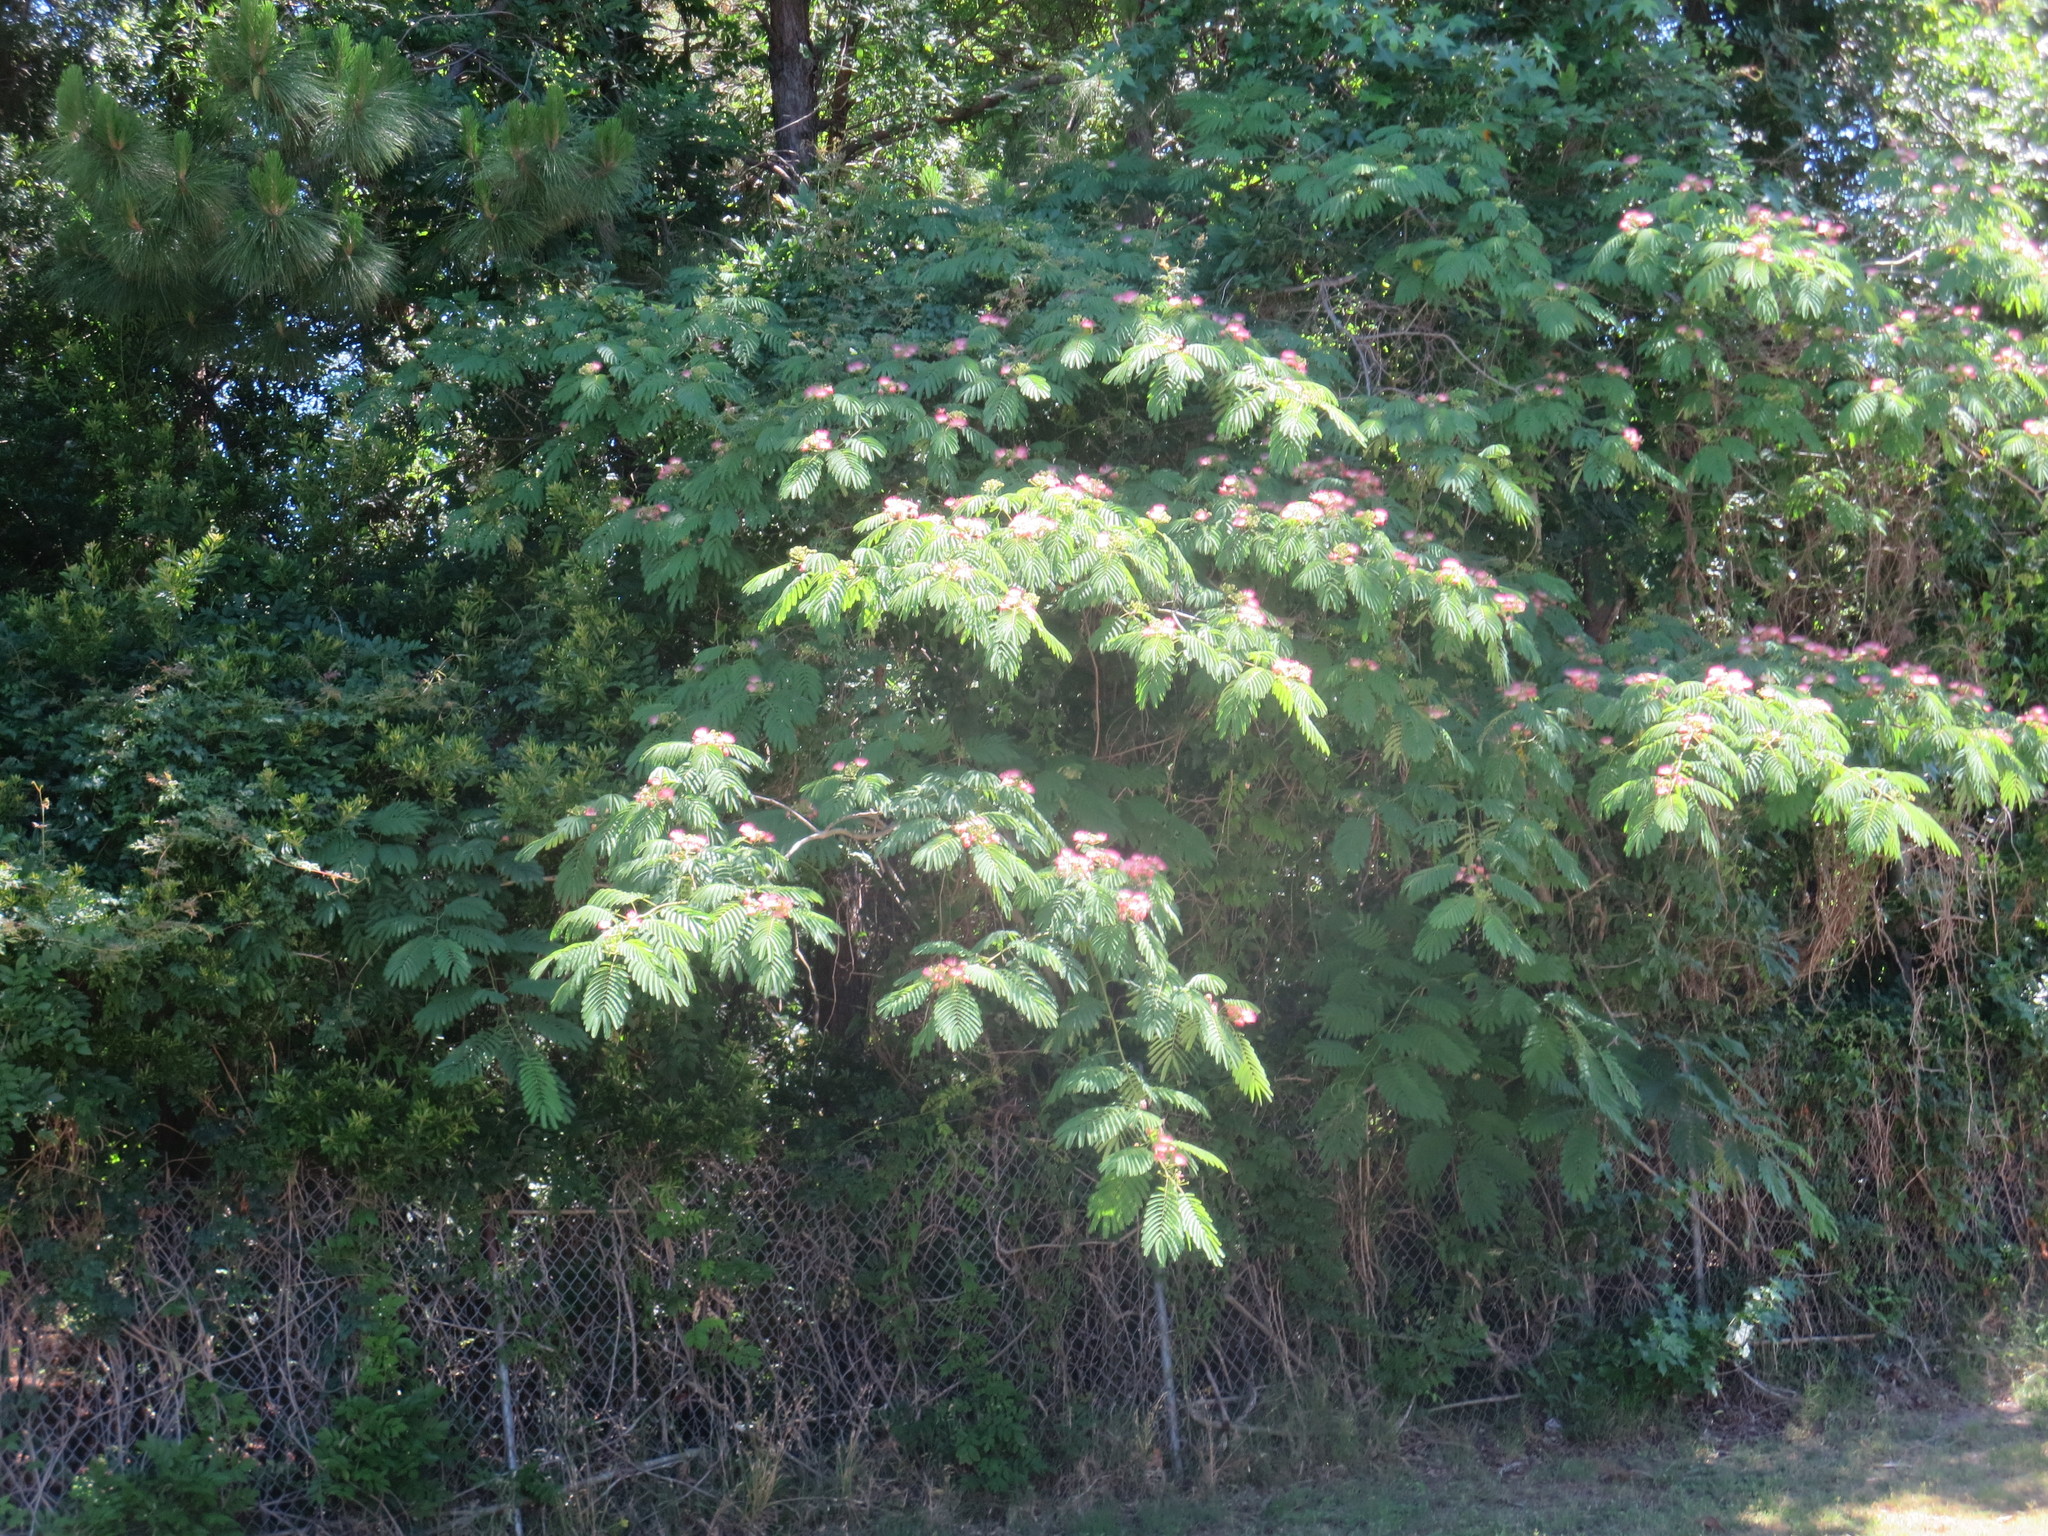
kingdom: Plantae
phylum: Tracheophyta
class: Magnoliopsida
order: Fabales
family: Fabaceae
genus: Albizia
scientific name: Albizia julibrissin
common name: Silktree
